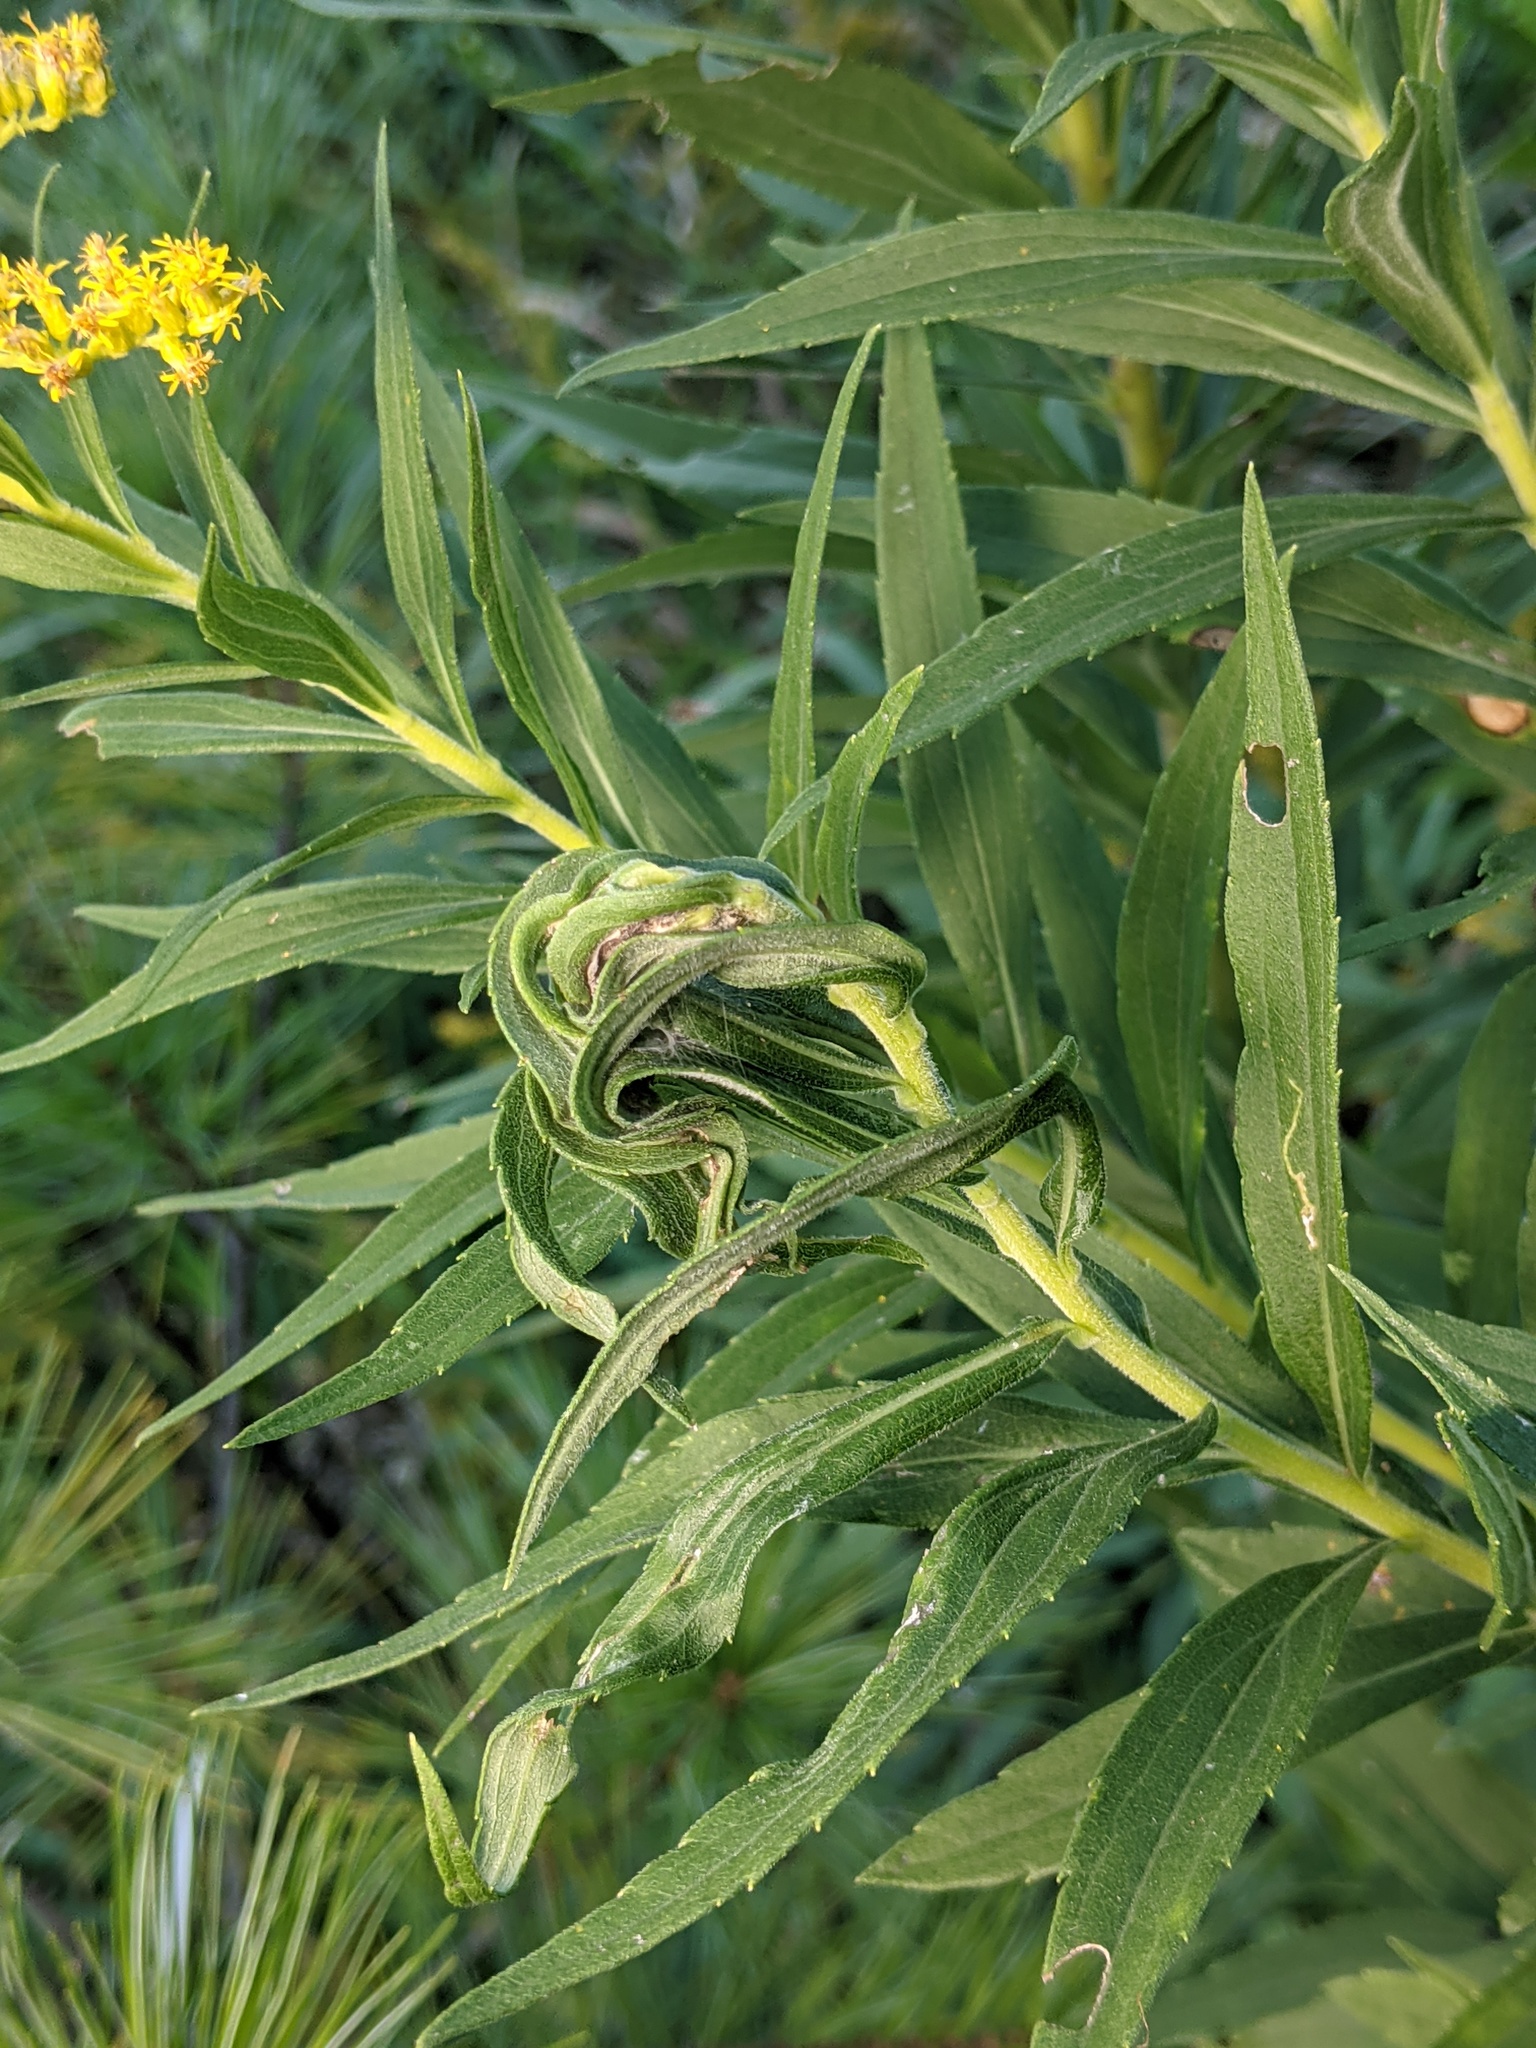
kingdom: Animalia
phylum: Arthropoda
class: Insecta
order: Diptera
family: Cecidomyiidae
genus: Asphondylia
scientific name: Asphondylia solidaginis
